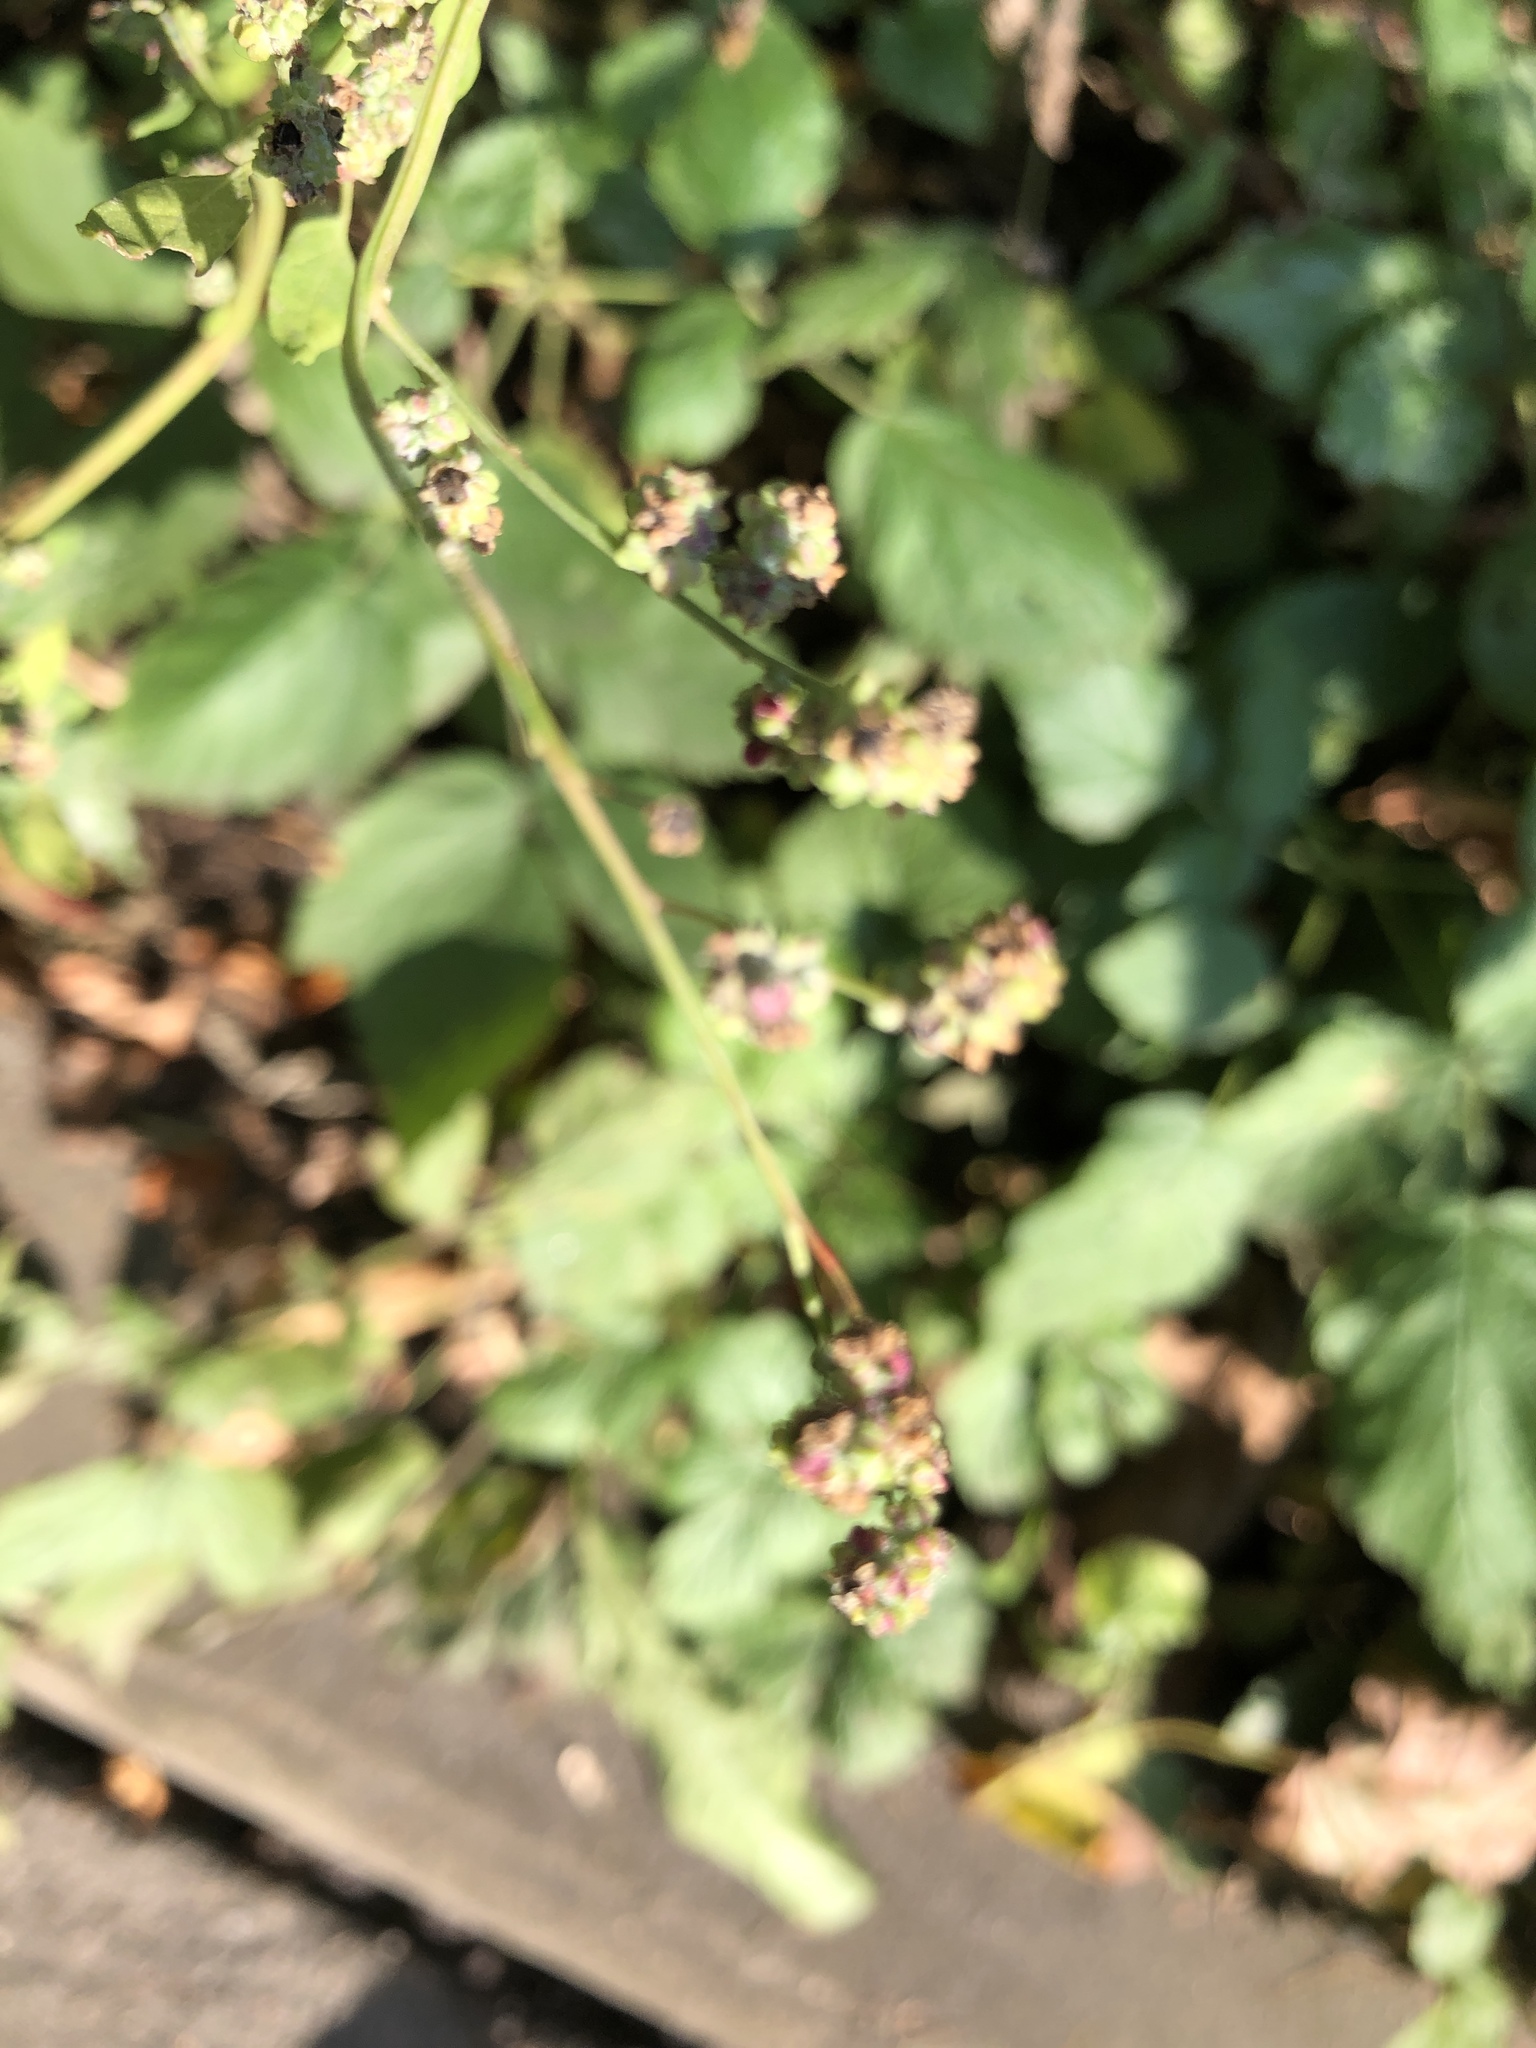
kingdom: Plantae
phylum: Tracheophyta
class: Magnoliopsida
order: Caryophyllales
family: Amaranthaceae
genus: Atriplex
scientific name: Atriplex patula
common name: Common orache
